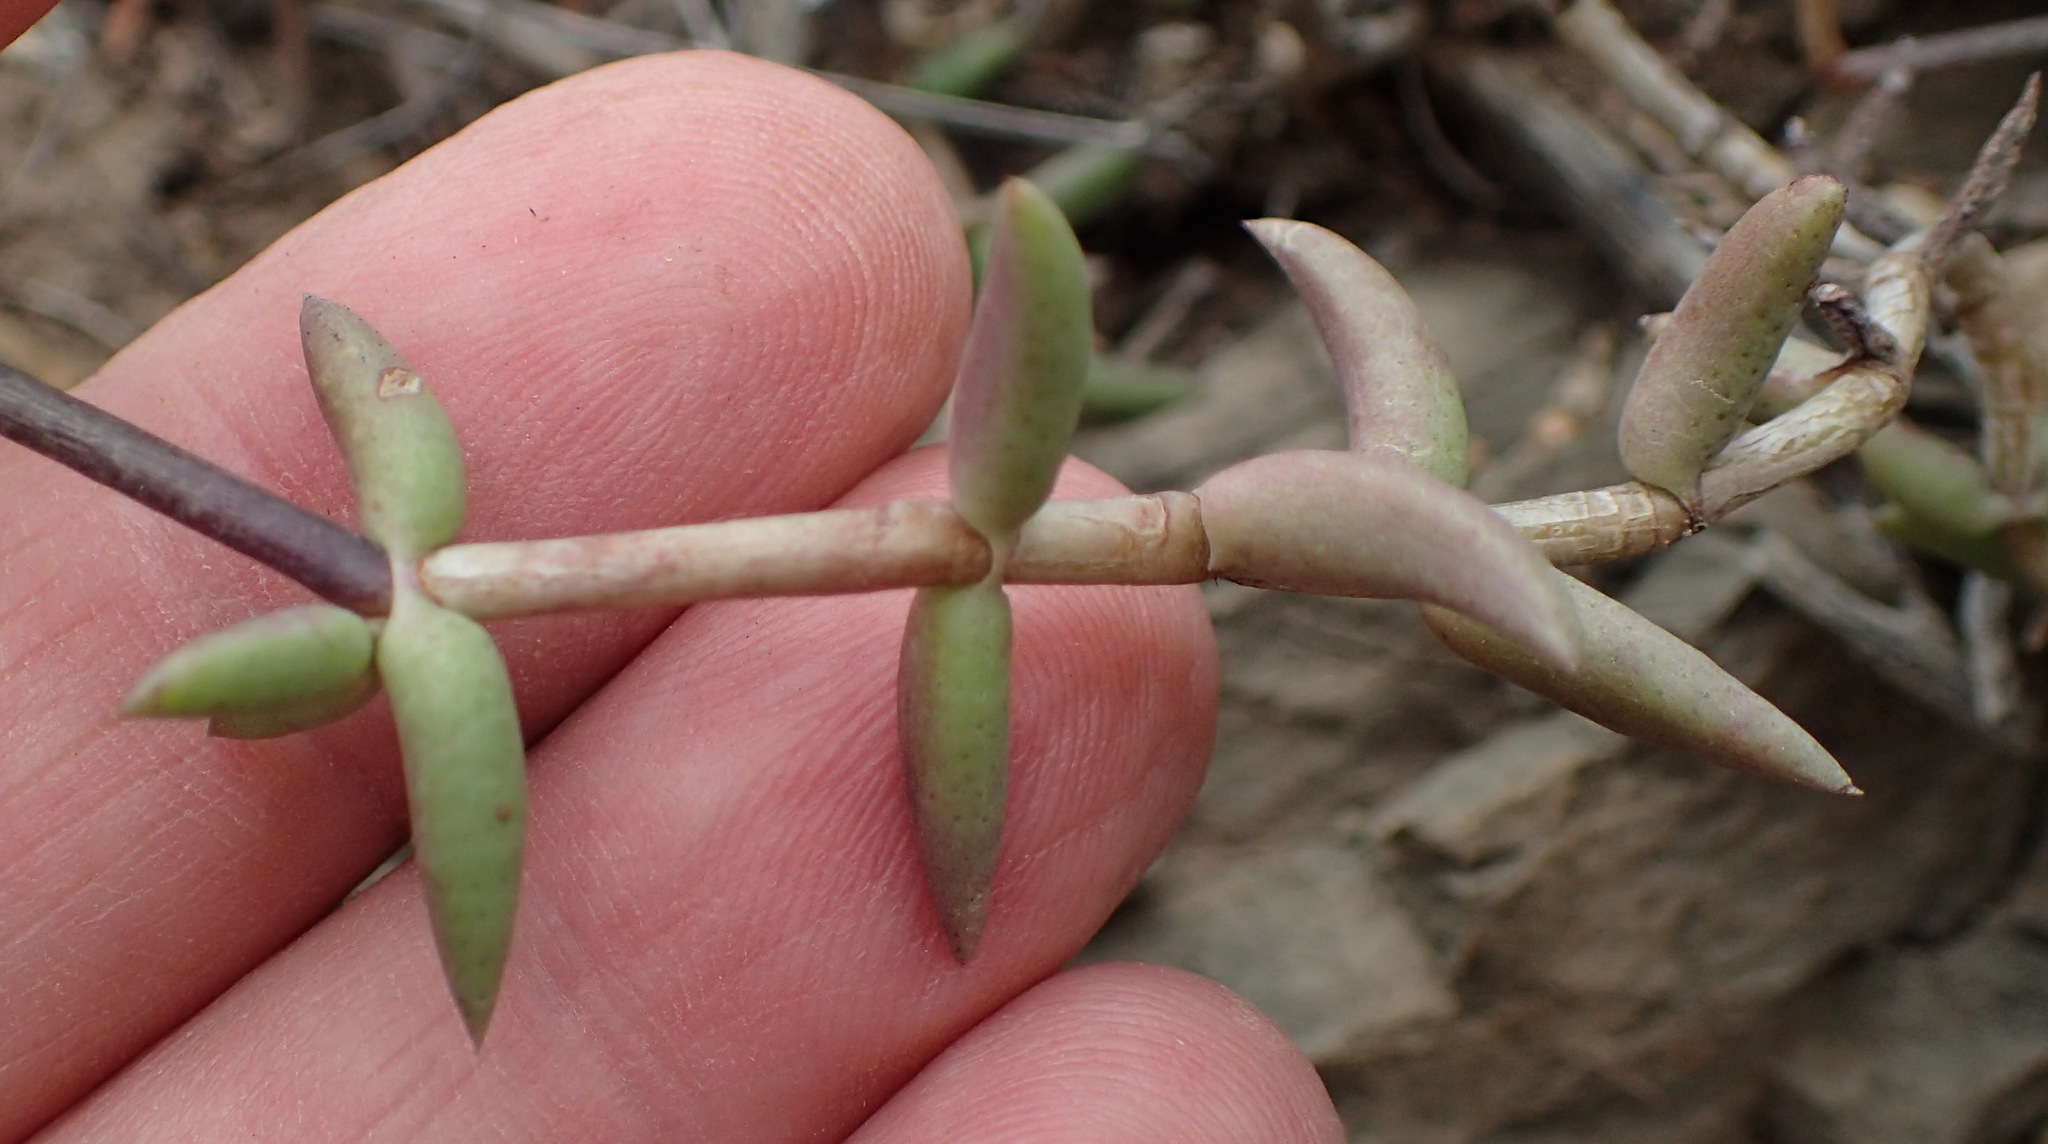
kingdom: Plantae
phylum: Tracheophyta
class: Magnoliopsida
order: Saxifragales
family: Crassulaceae
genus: Crassula
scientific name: Crassula tetragona
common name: Pygmyweed
